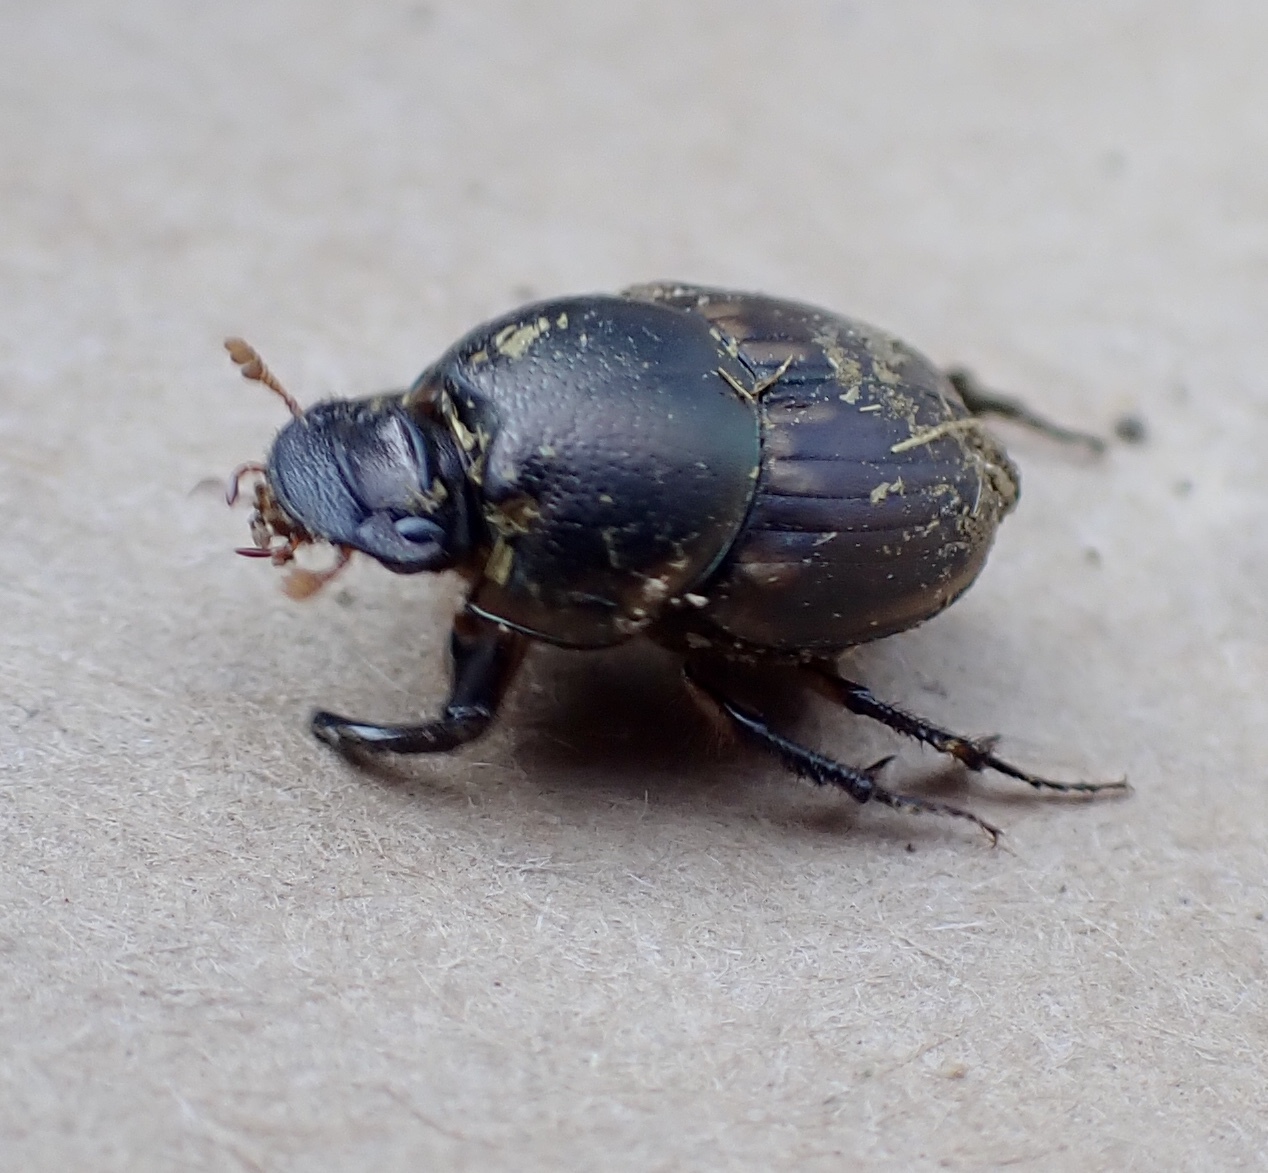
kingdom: Animalia
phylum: Arthropoda
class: Insecta
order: Coleoptera
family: Scarabaeidae
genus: Digitonthophagus
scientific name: Digitonthophagus gazella
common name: Brown dung beetle
